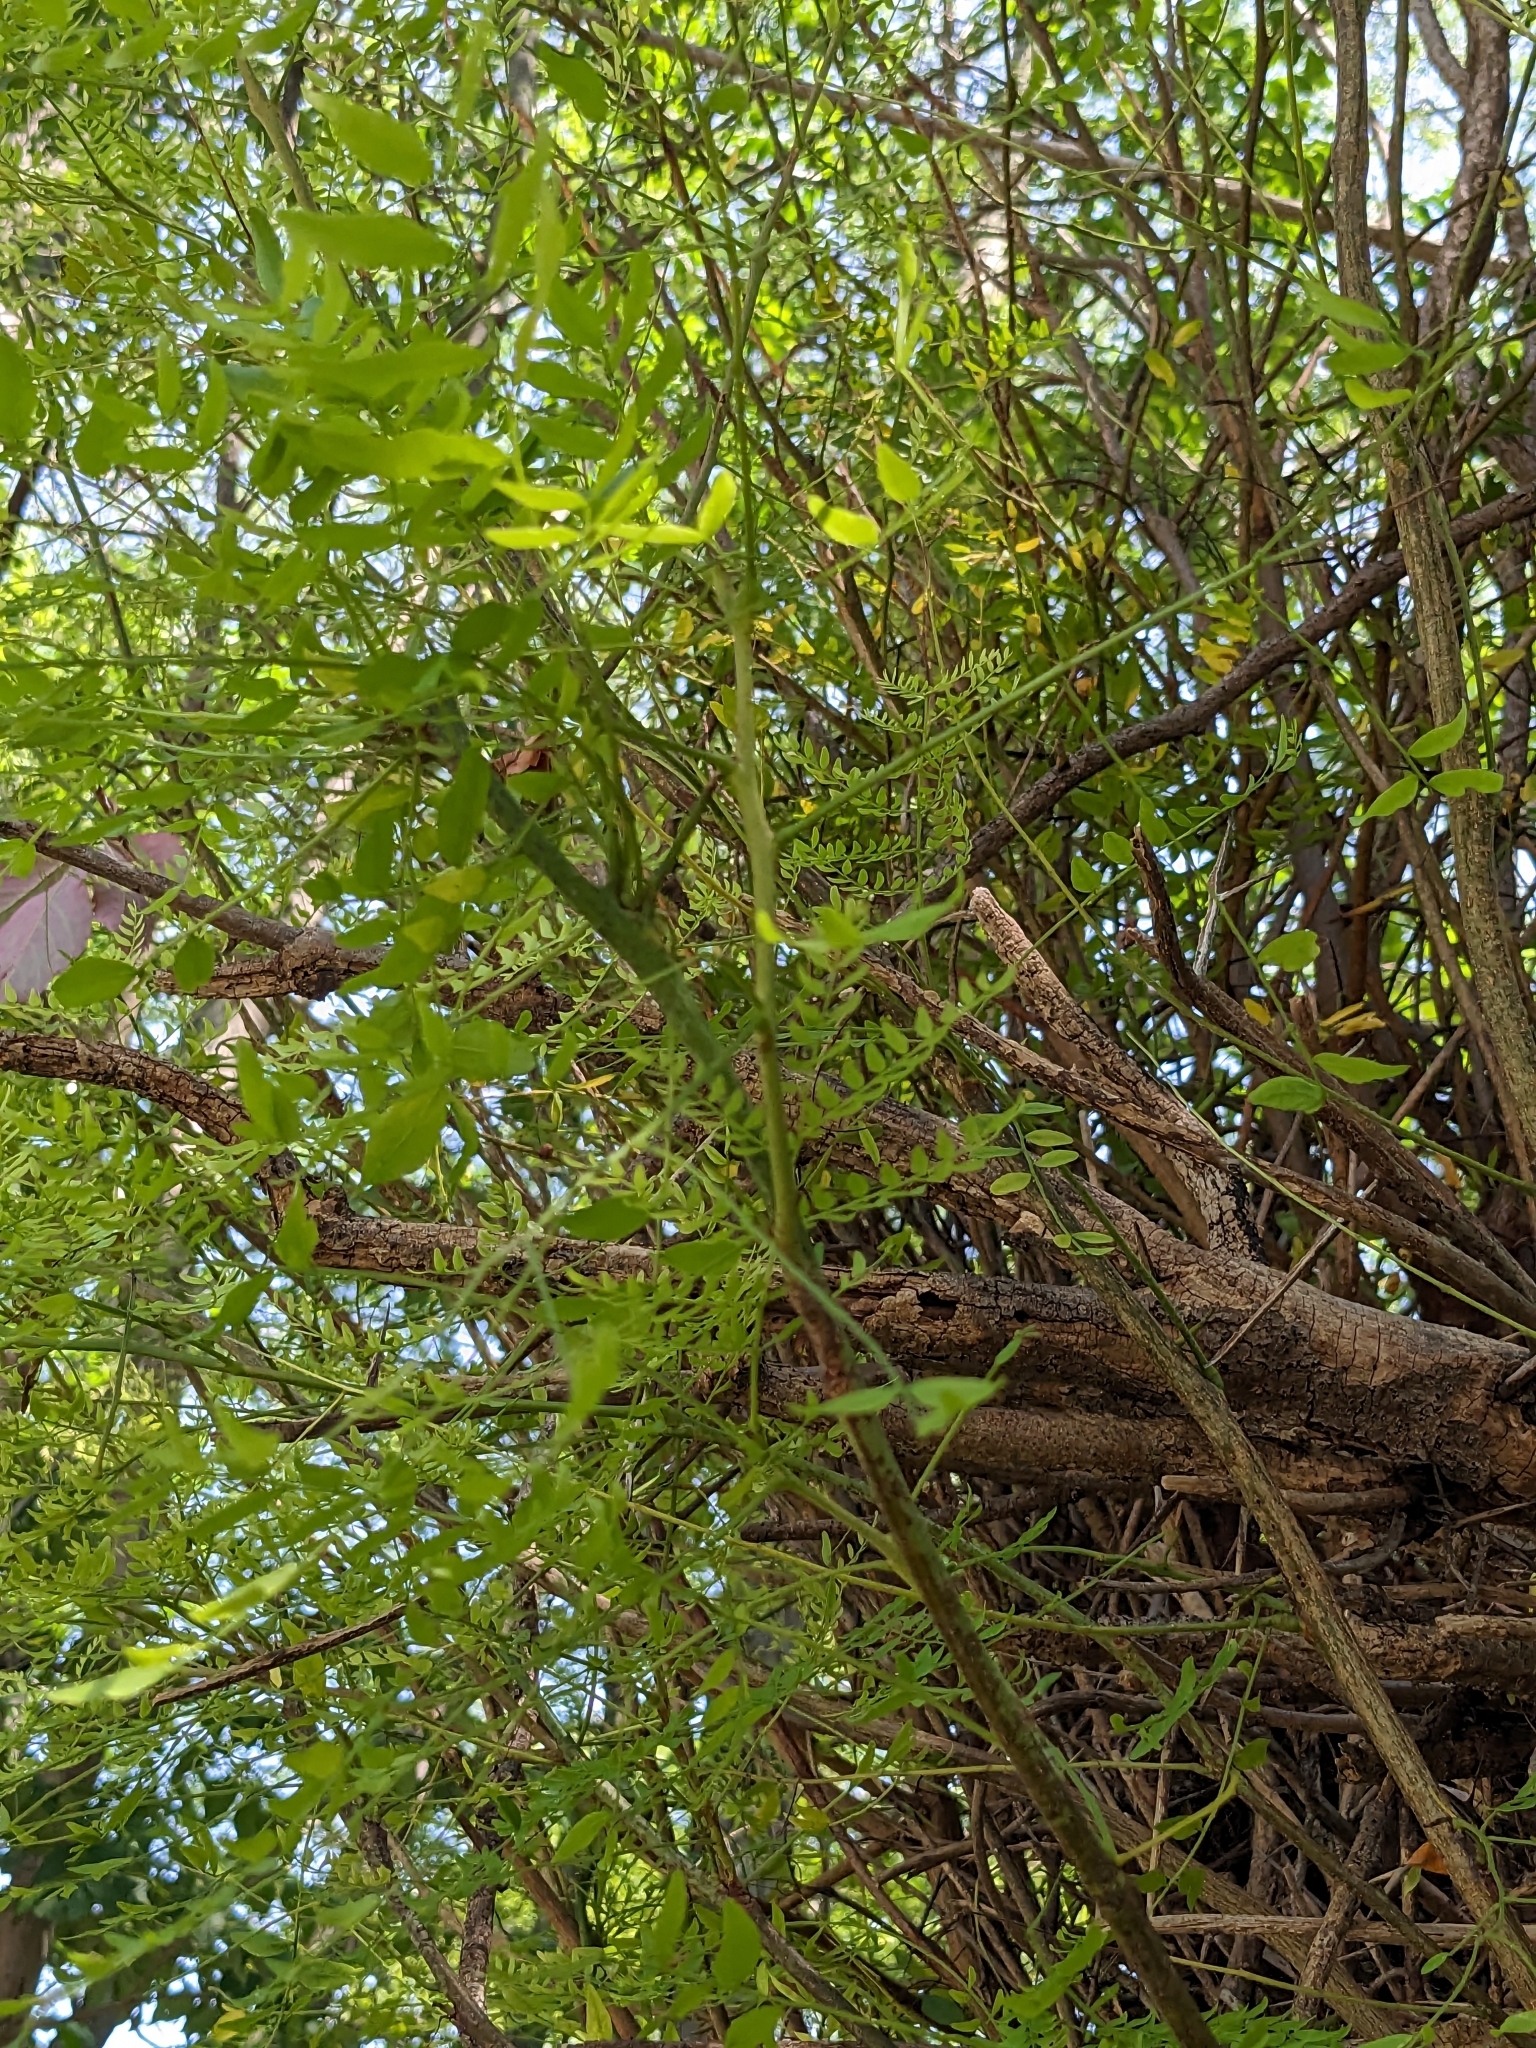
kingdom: Plantae
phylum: Tracheophyta
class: Magnoliopsida
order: Fabales
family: Fabaceae
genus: Gleditsia
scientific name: Gleditsia triacanthos
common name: Common honeylocust
